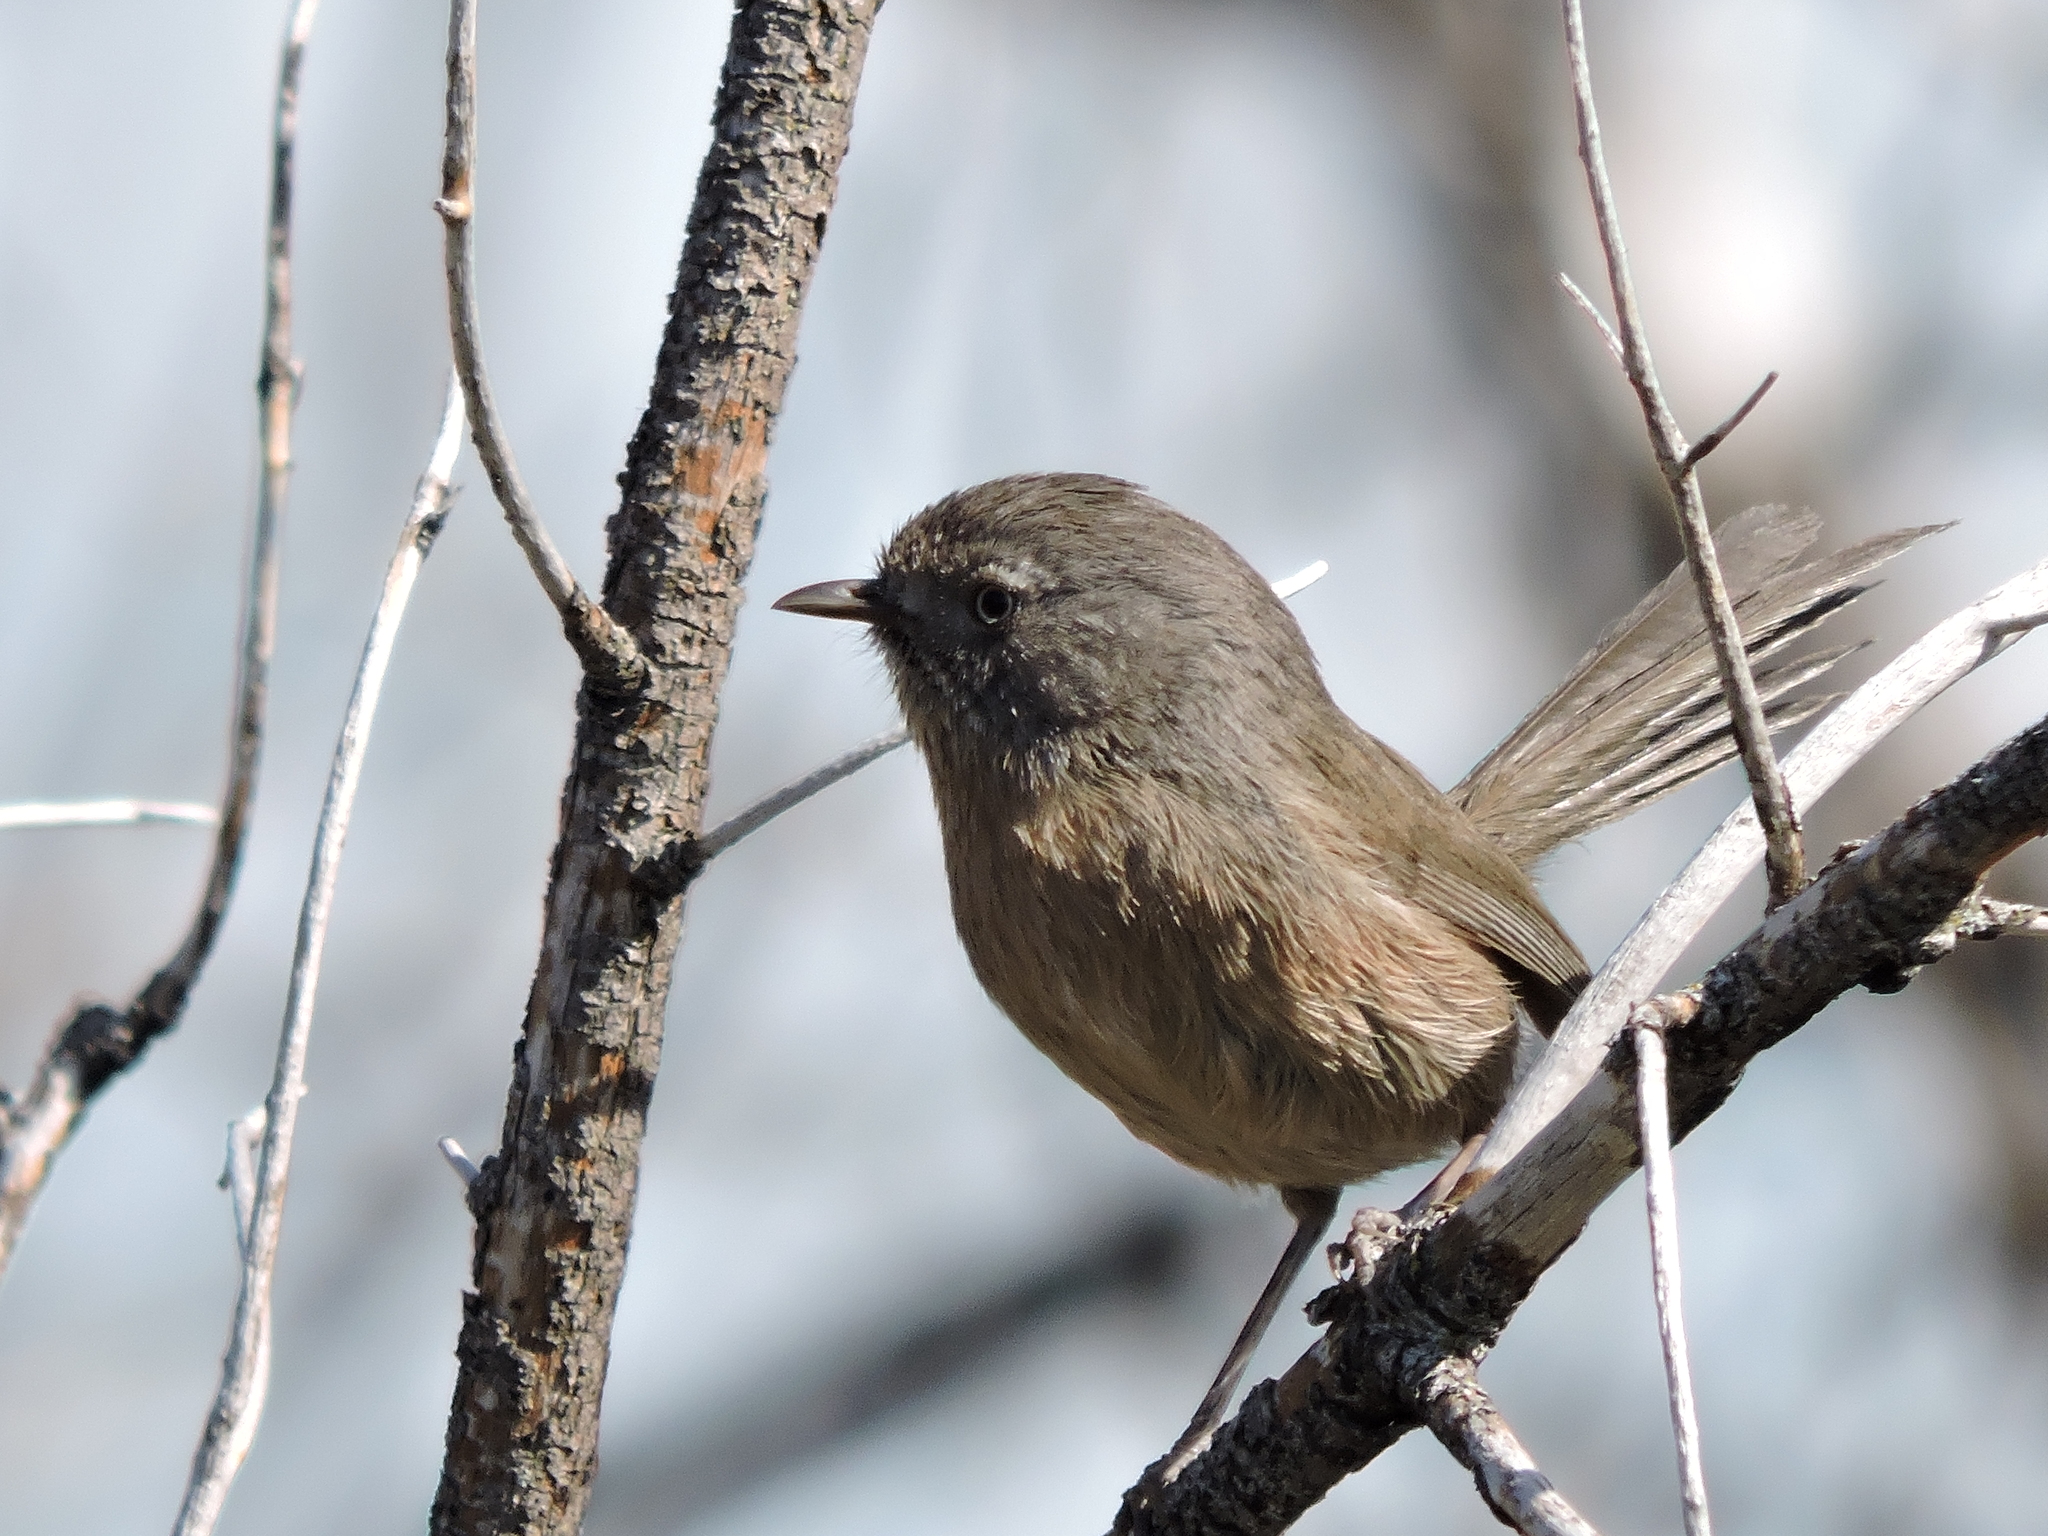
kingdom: Animalia
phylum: Chordata
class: Aves
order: Passeriformes
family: Sylviidae
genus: Chamaea
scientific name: Chamaea fasciata
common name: Wrentit
